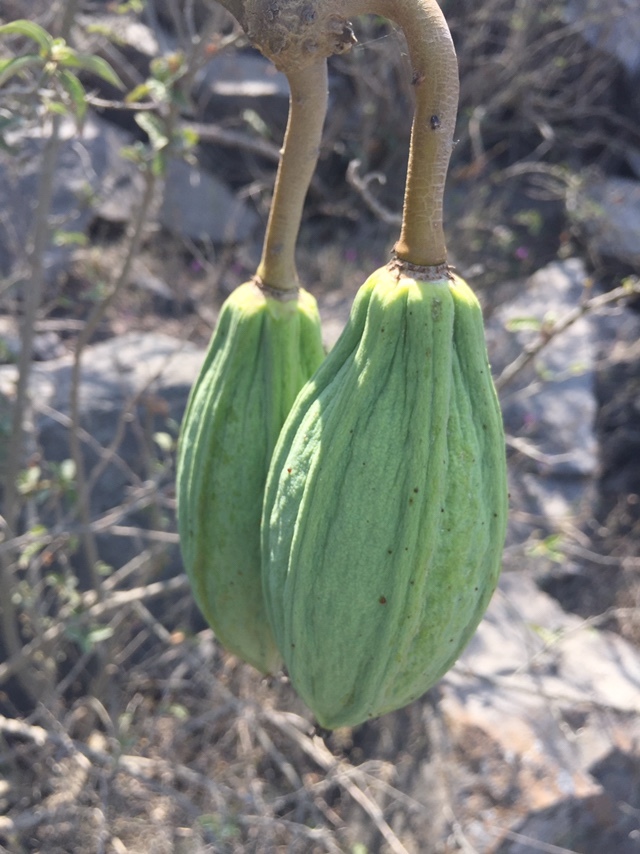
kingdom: Plantae
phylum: Tracheophyta
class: Magnoliopsida
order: Brassicales
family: Caricaceae
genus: Vasconcellea
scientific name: Vasconcellea candicans
